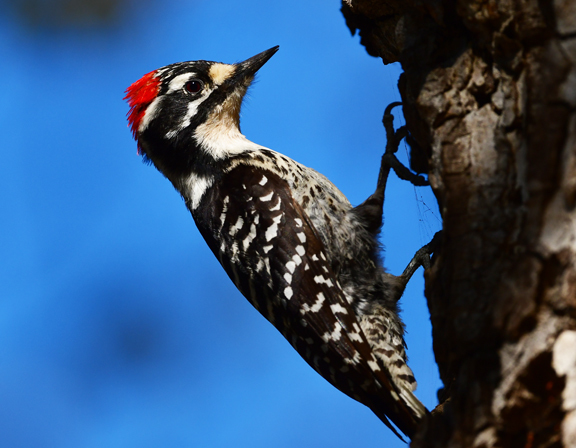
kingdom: Animalia
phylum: Chordata
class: Aves
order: Piciformes
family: Picidae
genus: Dryobates
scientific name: Dryobates nuttallii
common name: Nuttall's woodpecker
